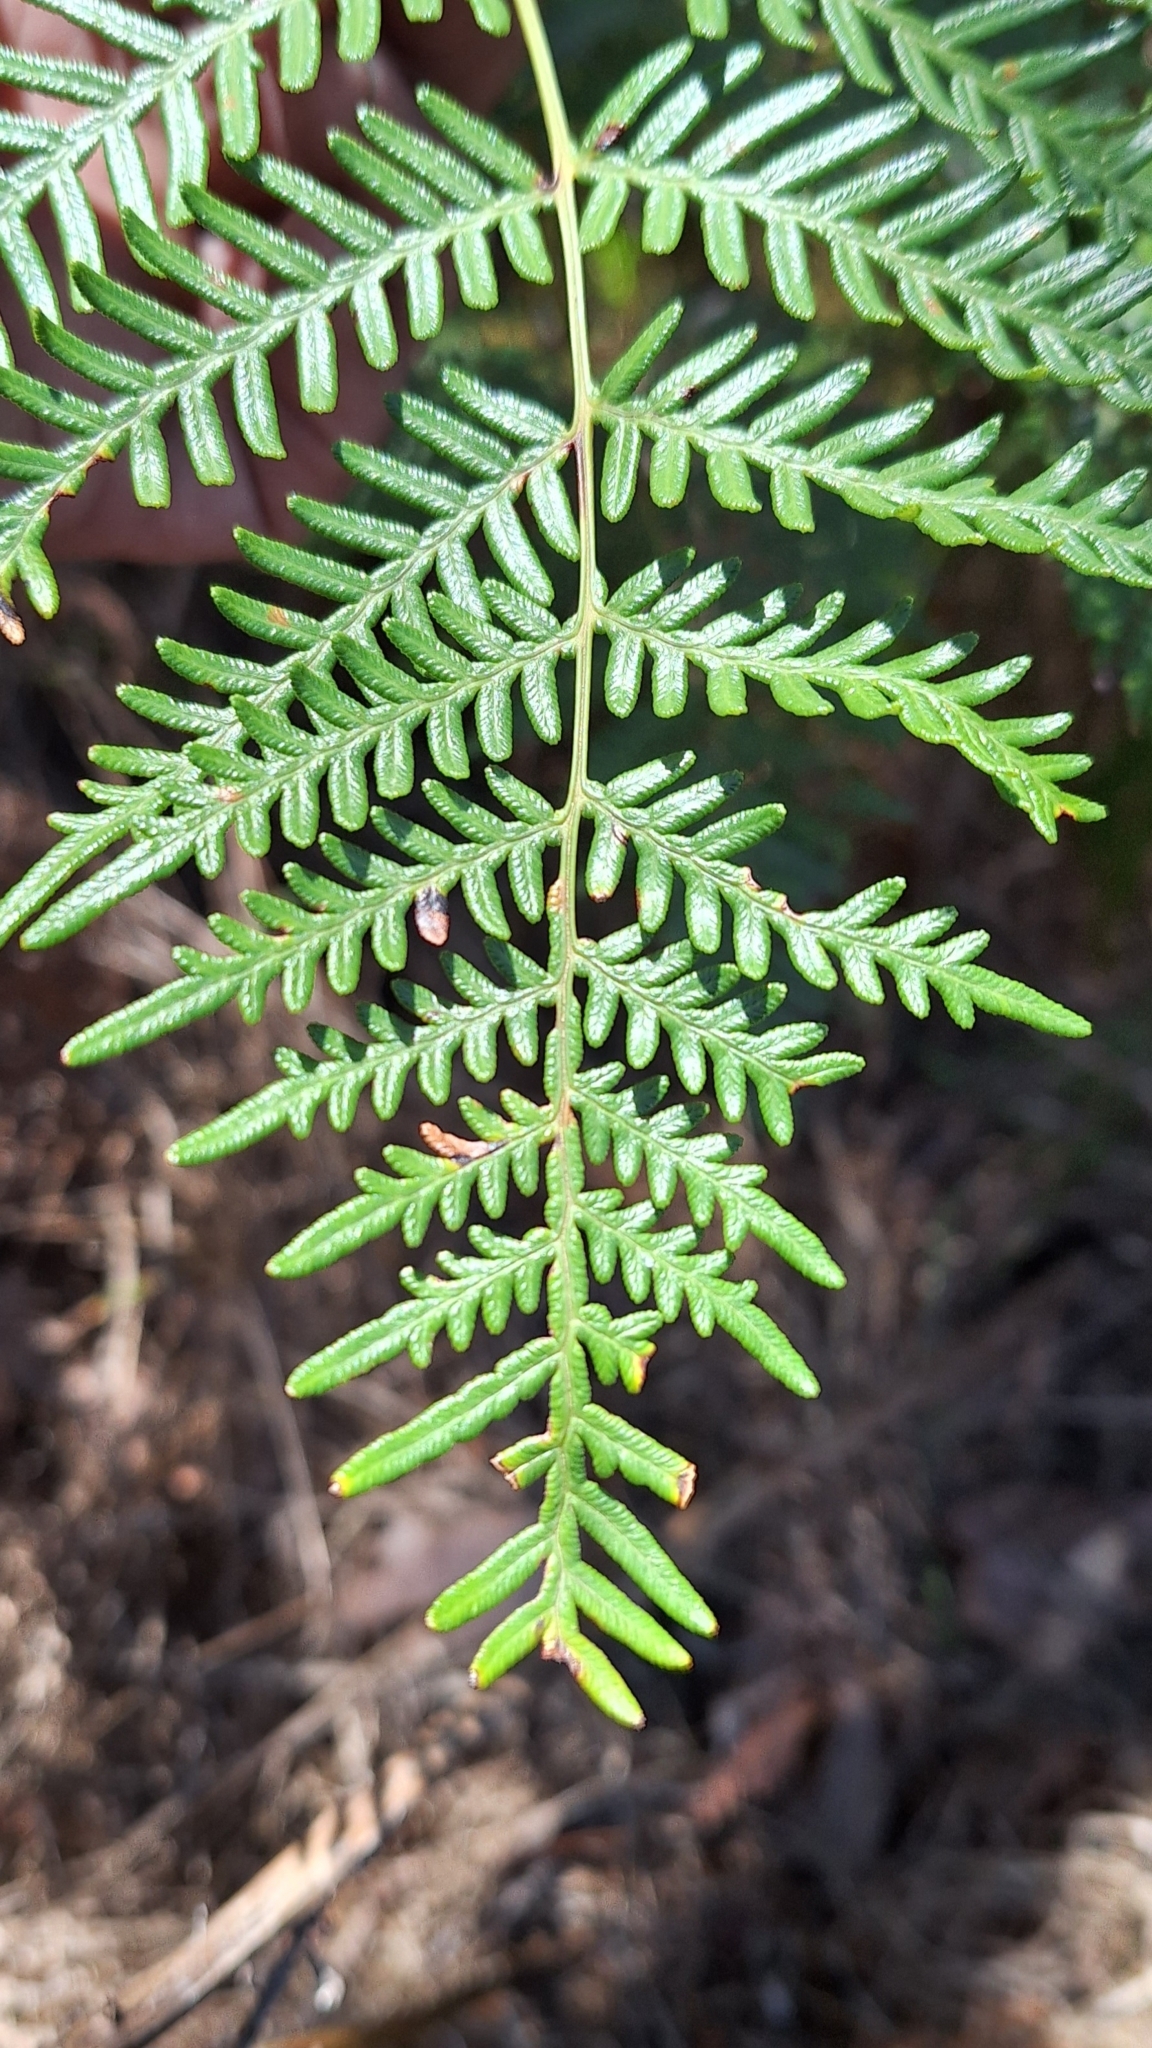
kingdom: Plantae
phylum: Tracheophyta
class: Polypodiopsida
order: Polypodiales
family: Dennstaedtiaceae
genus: Pteridium
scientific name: Pteridium esculentum
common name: Bracken fern
